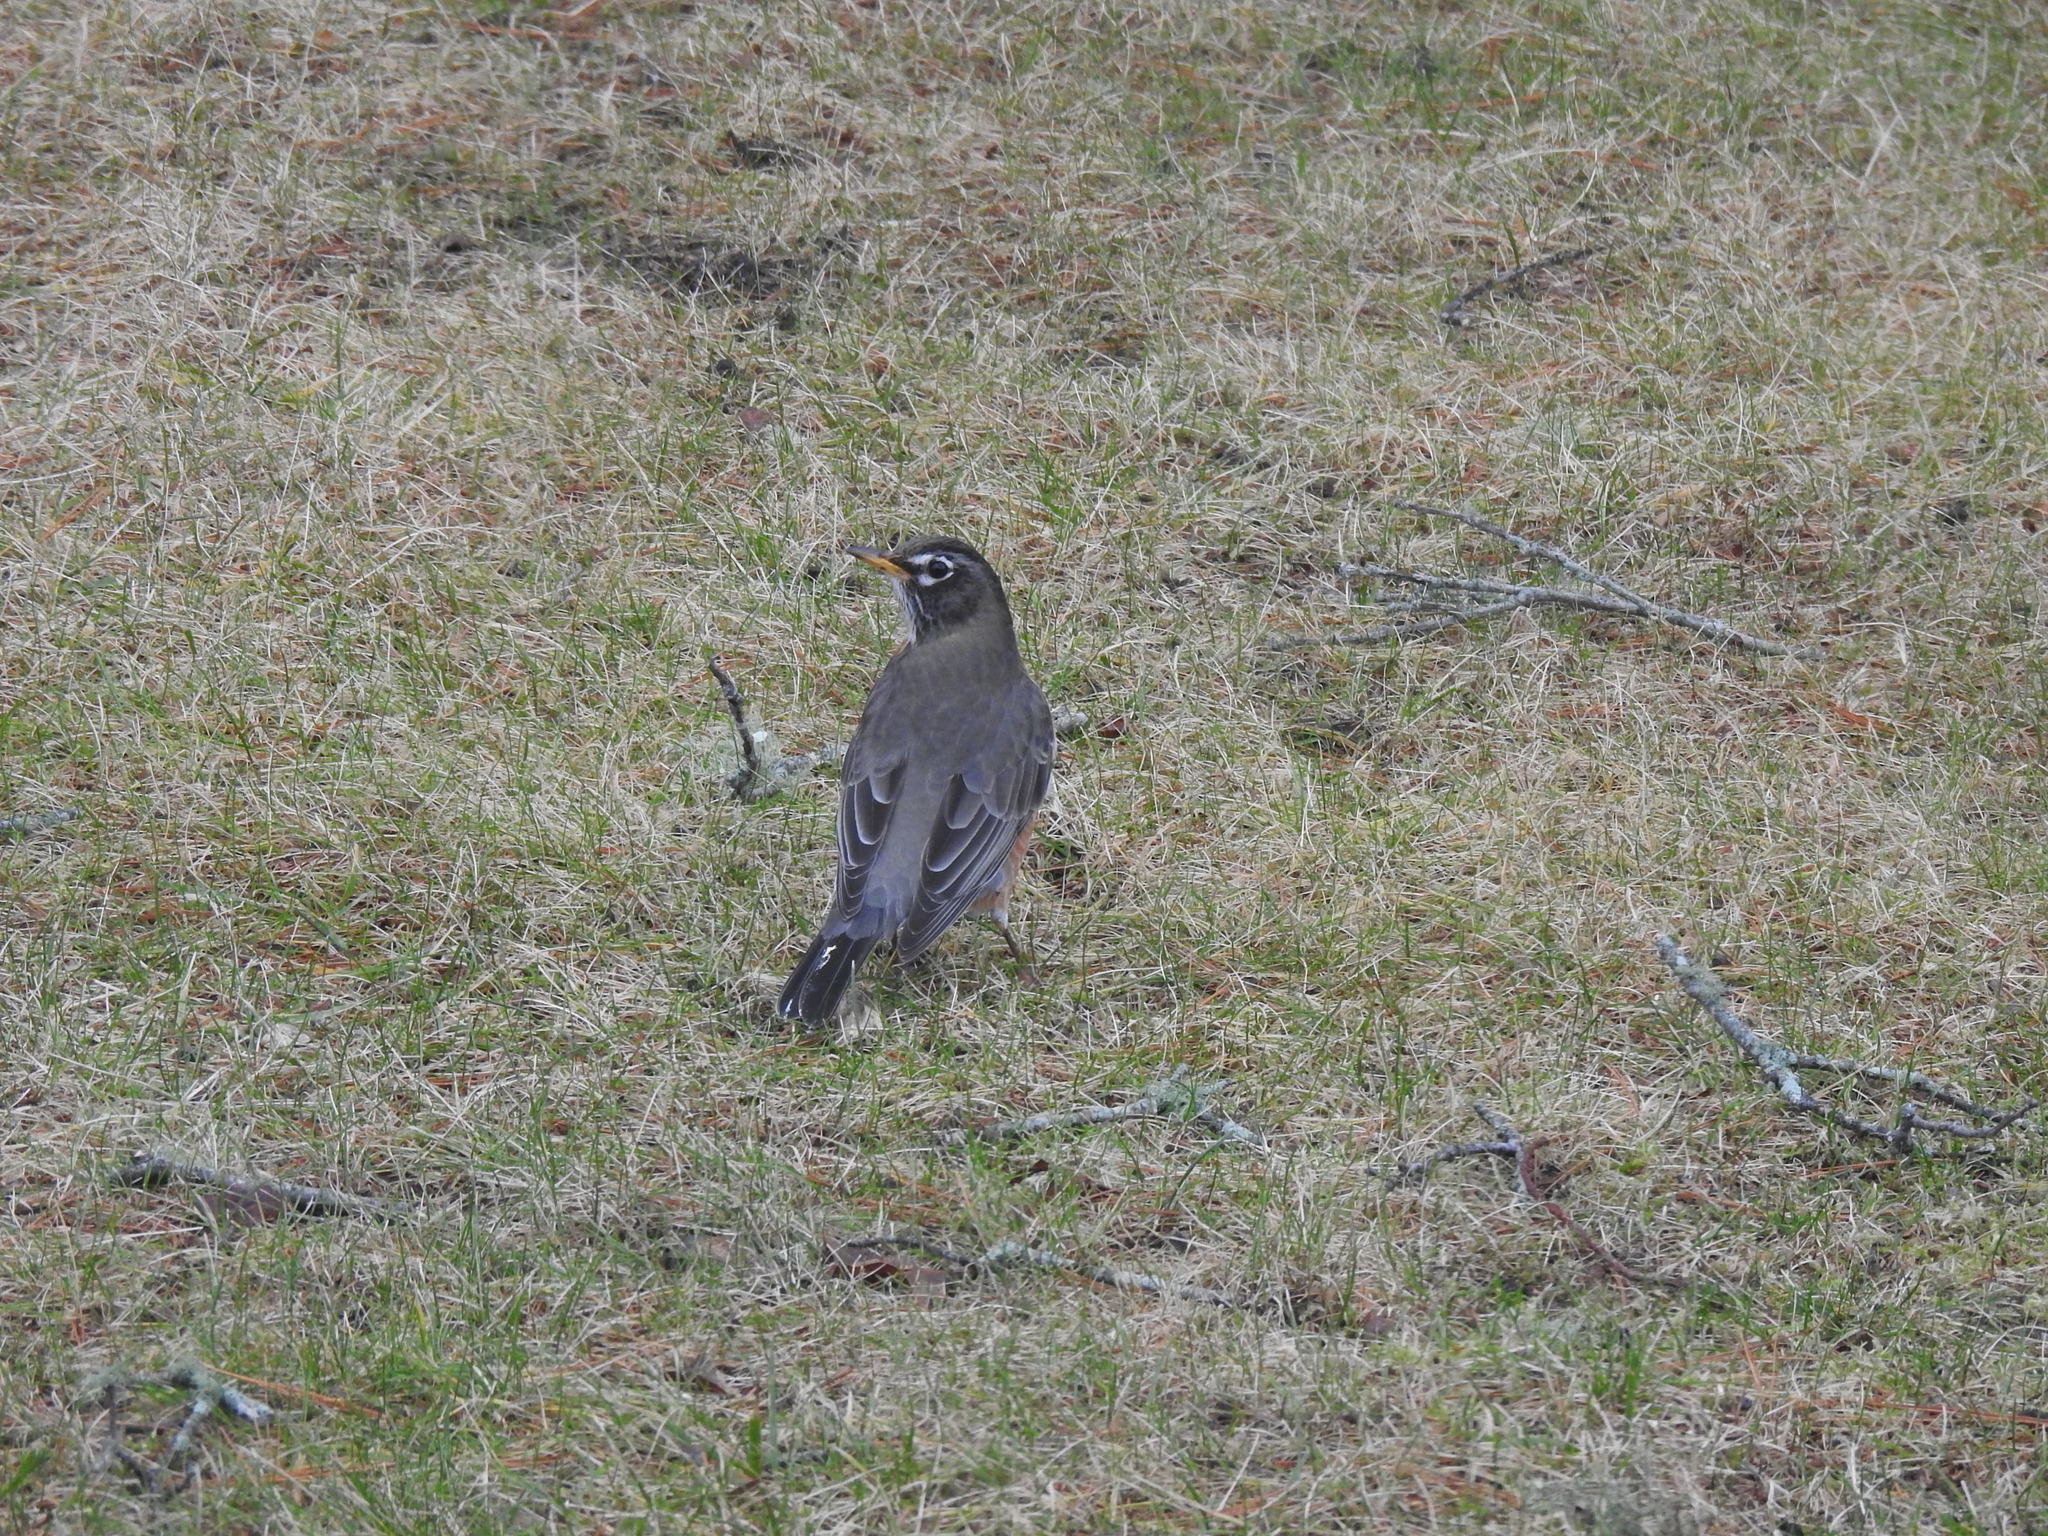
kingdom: Animalia
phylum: Chordata
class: Aves
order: Passeriformes
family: Turdidae
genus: Turdus
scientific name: Turdus migratorius
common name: American robin
